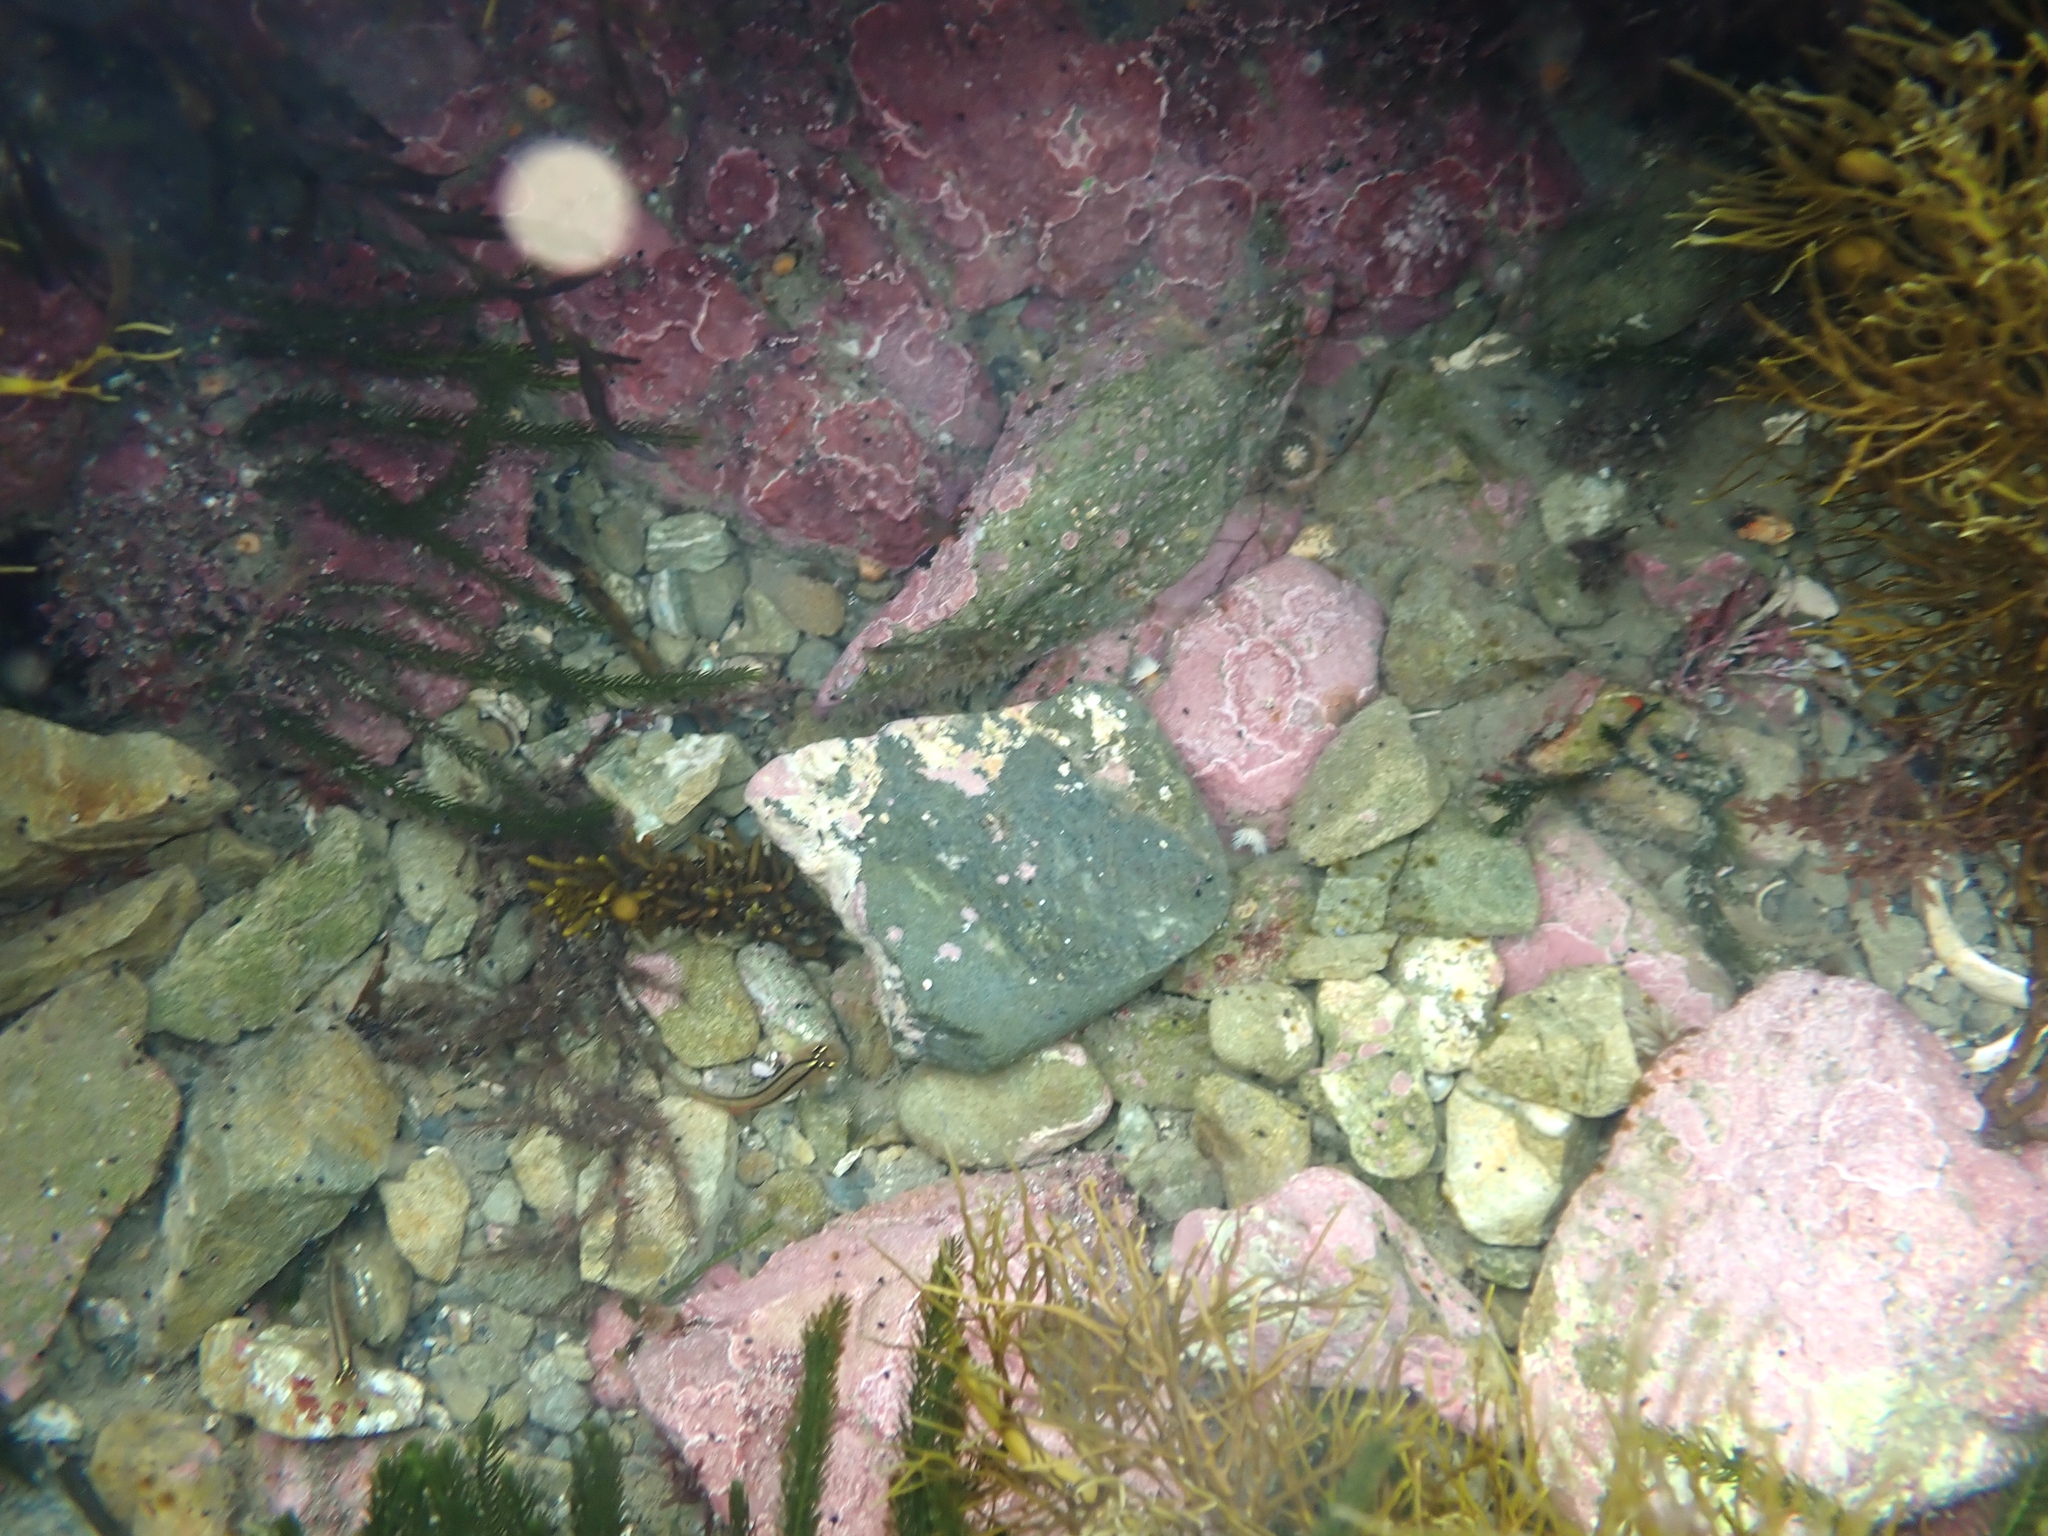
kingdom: Animalia
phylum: Mollusca
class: Gastropoda
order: Pleurobranchida
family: Pleurobranchidae
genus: Berthella
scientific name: Berthella medietas
